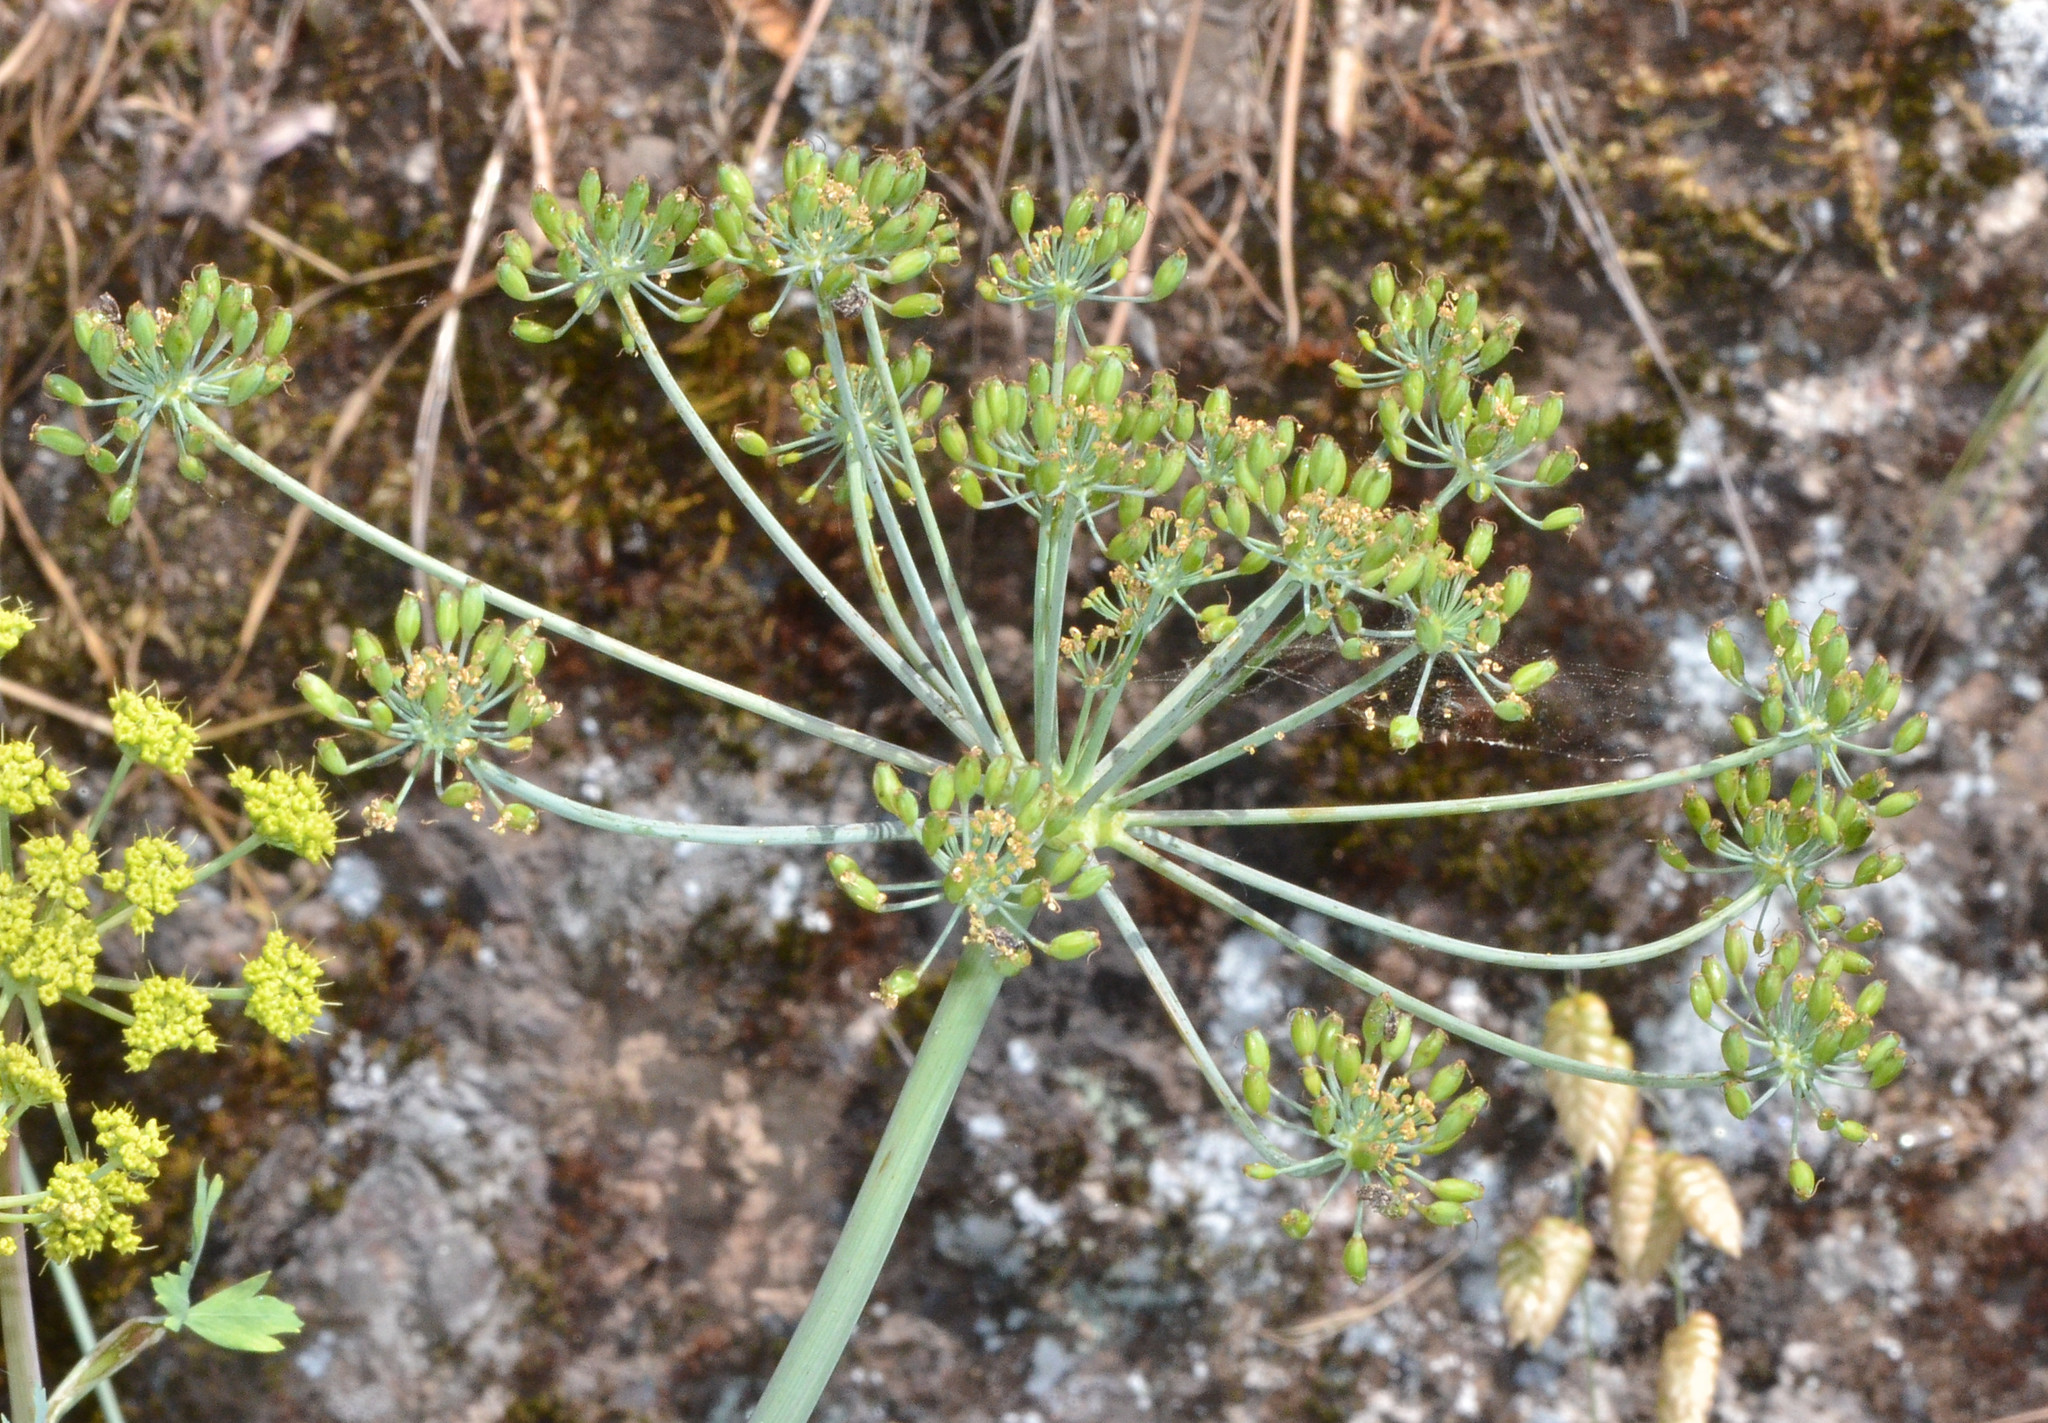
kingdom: Plantae
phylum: Tracheophyta
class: Magnoliopsida
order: Apiales
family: Apiaceae
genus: Lomatium
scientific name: Lomatium californicum
